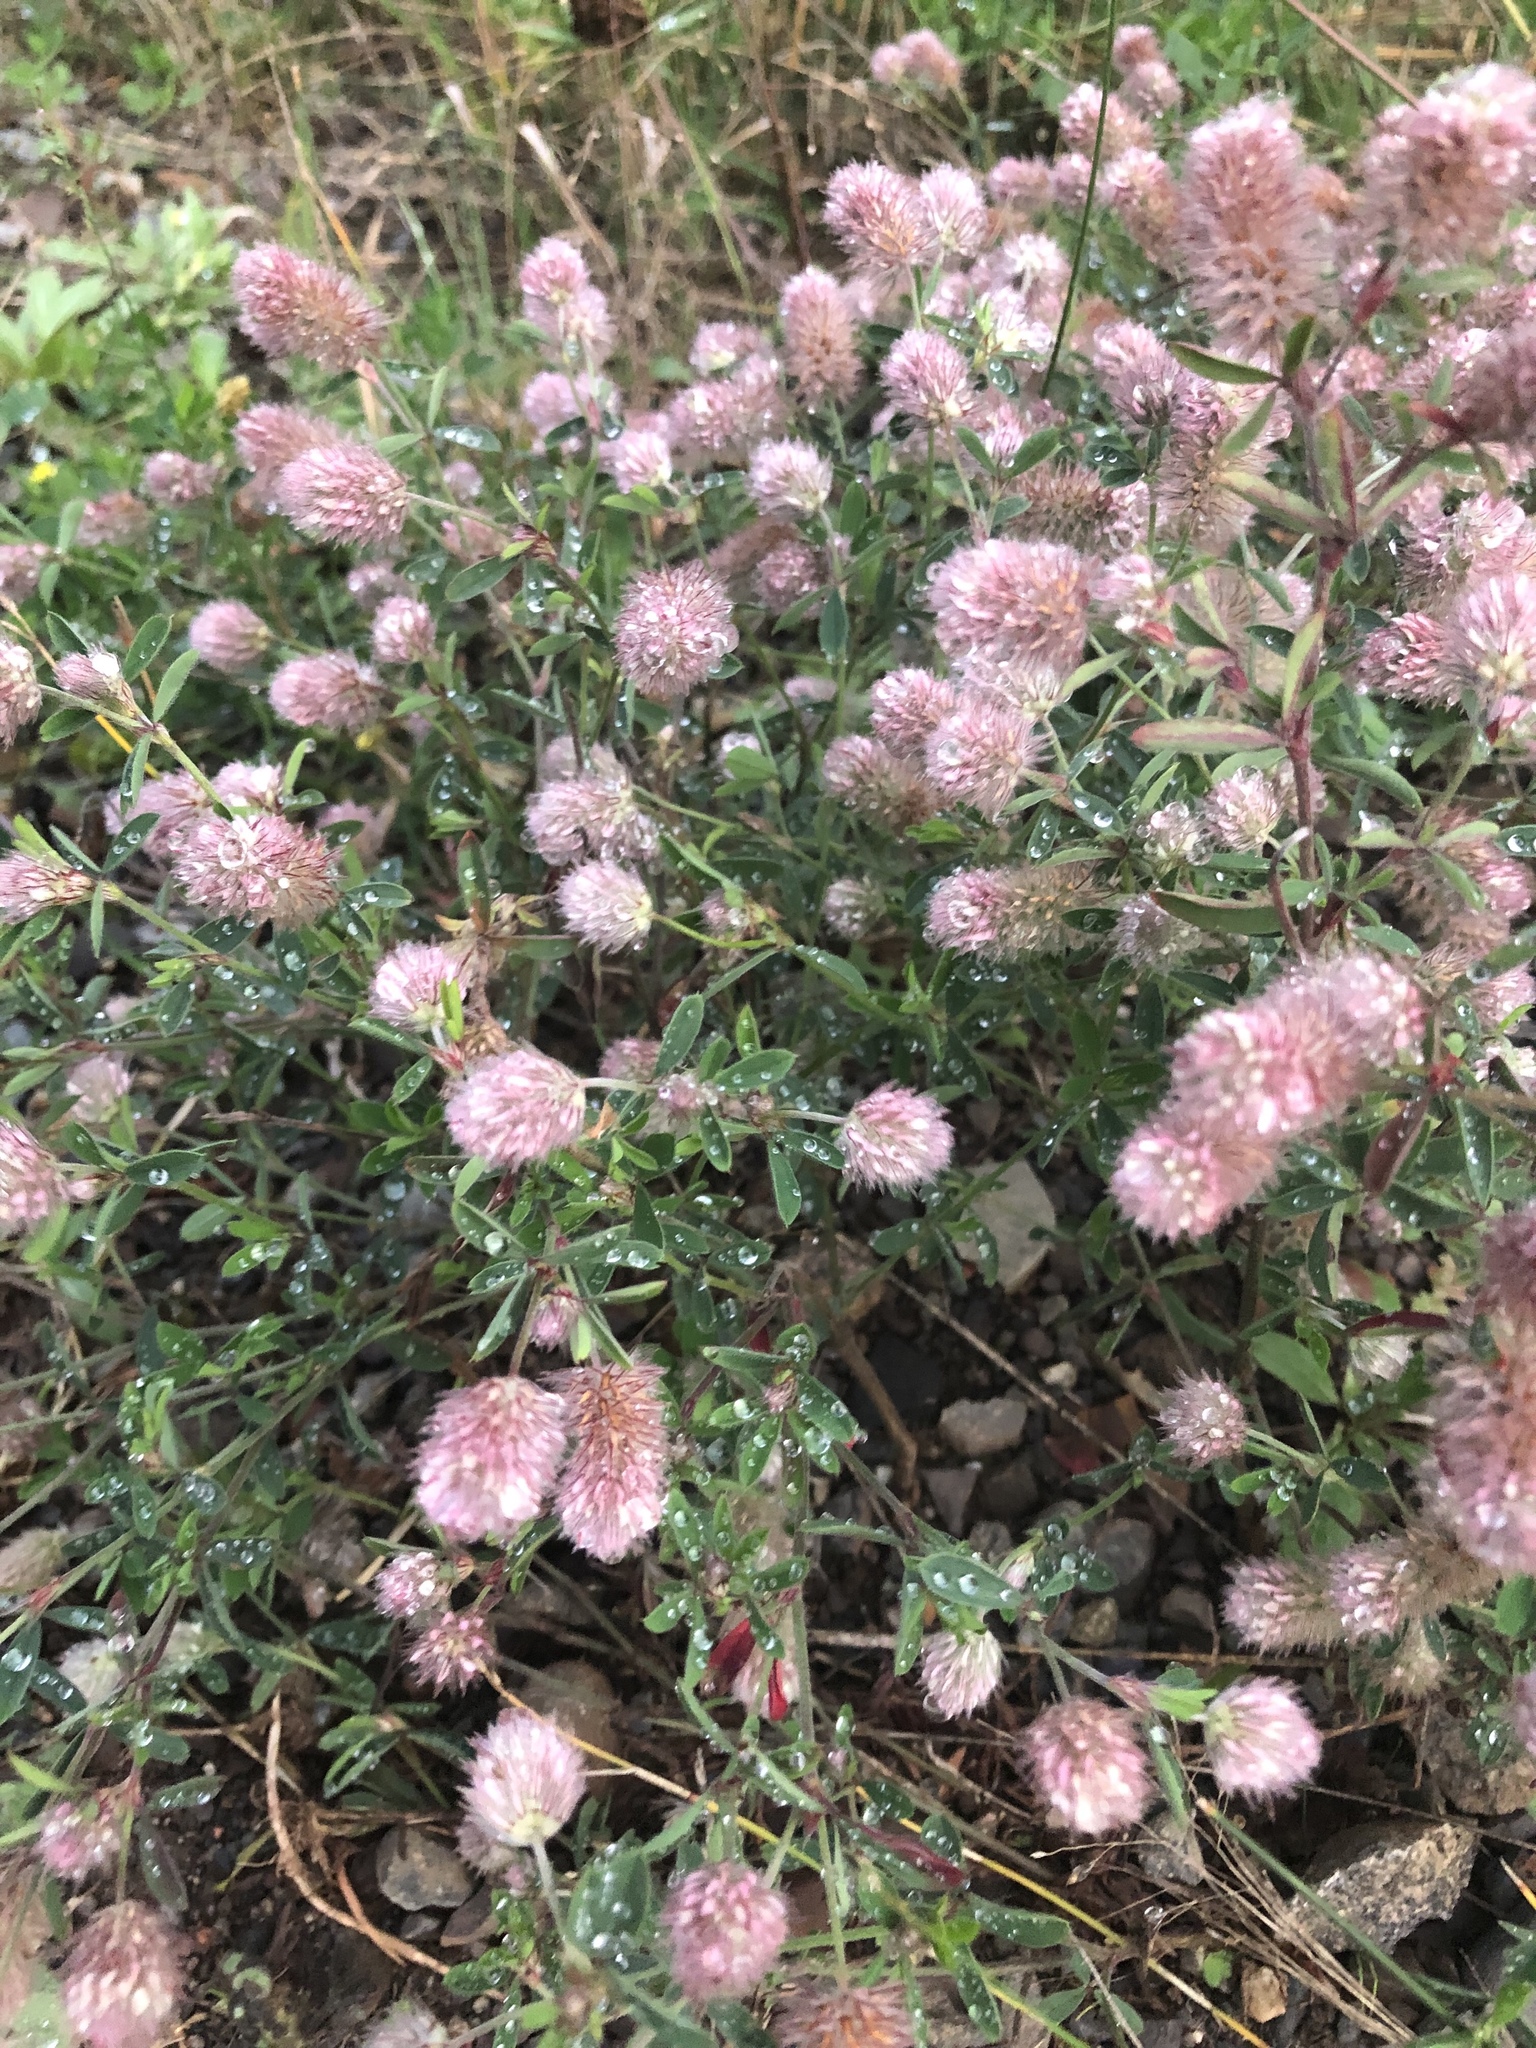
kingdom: Plantae
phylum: Tracheophyta
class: Magnoliopsida
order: Fabales
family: Fabaceae
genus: Trifolium
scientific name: Trifolium arvense
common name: Hare's-foot clover
